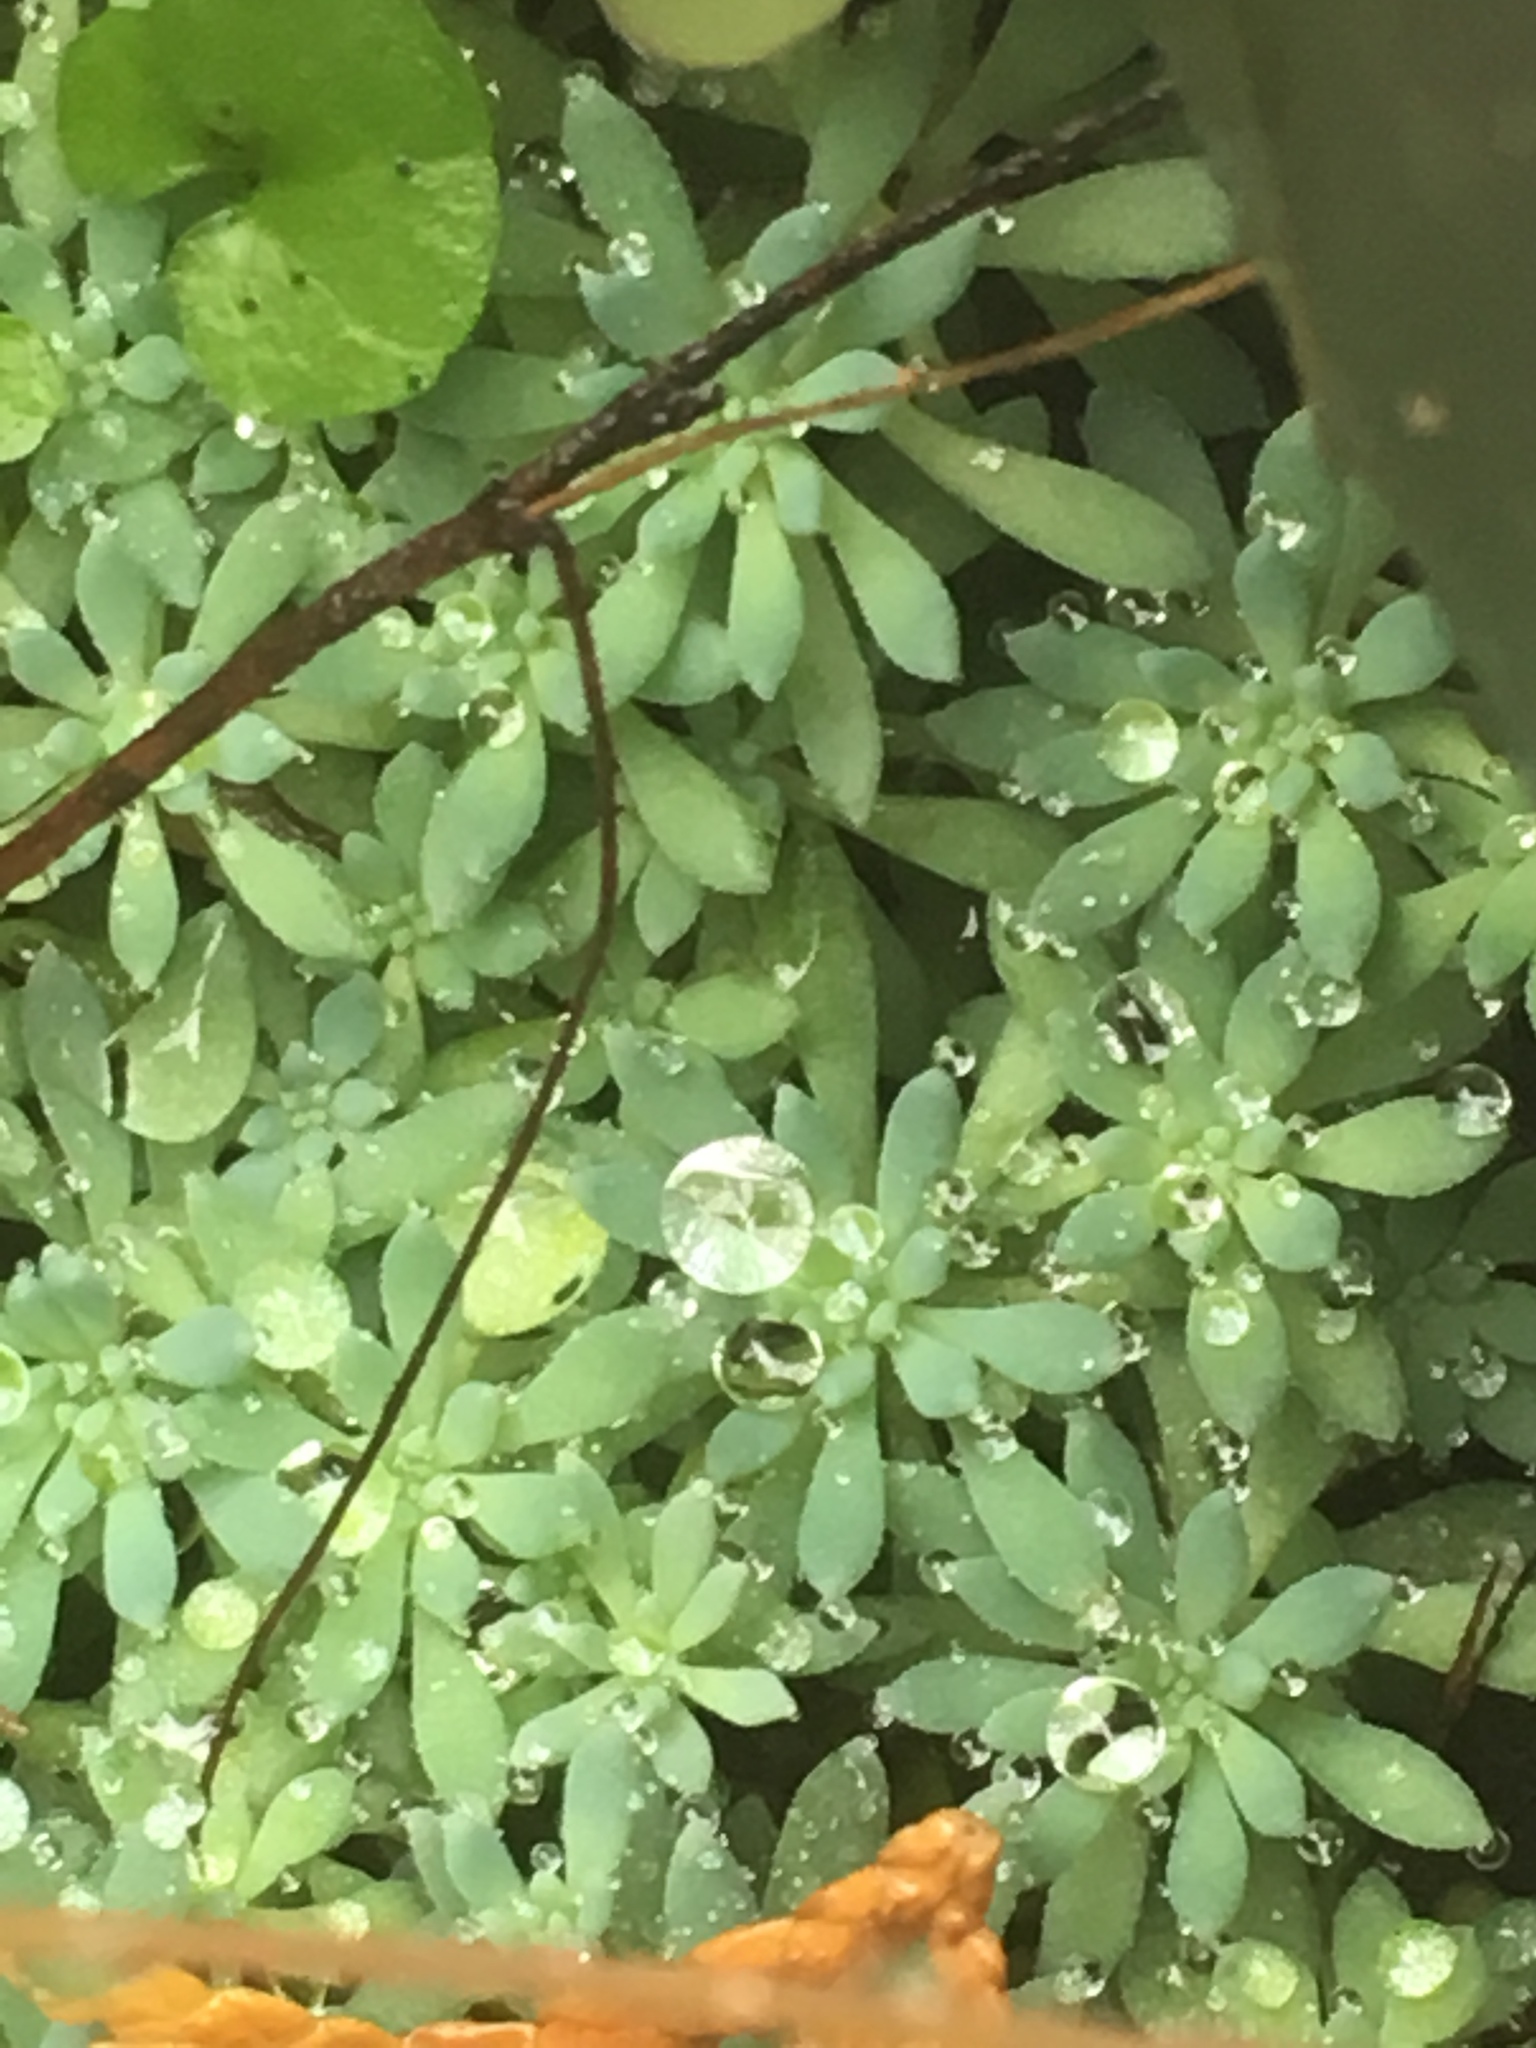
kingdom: Plantae
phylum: Tracheophyta
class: Magnoliopsida
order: Saxifragales
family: Crassulaceae
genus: Sedum
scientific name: Sedum hispanicum
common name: Spanish stonecrop
